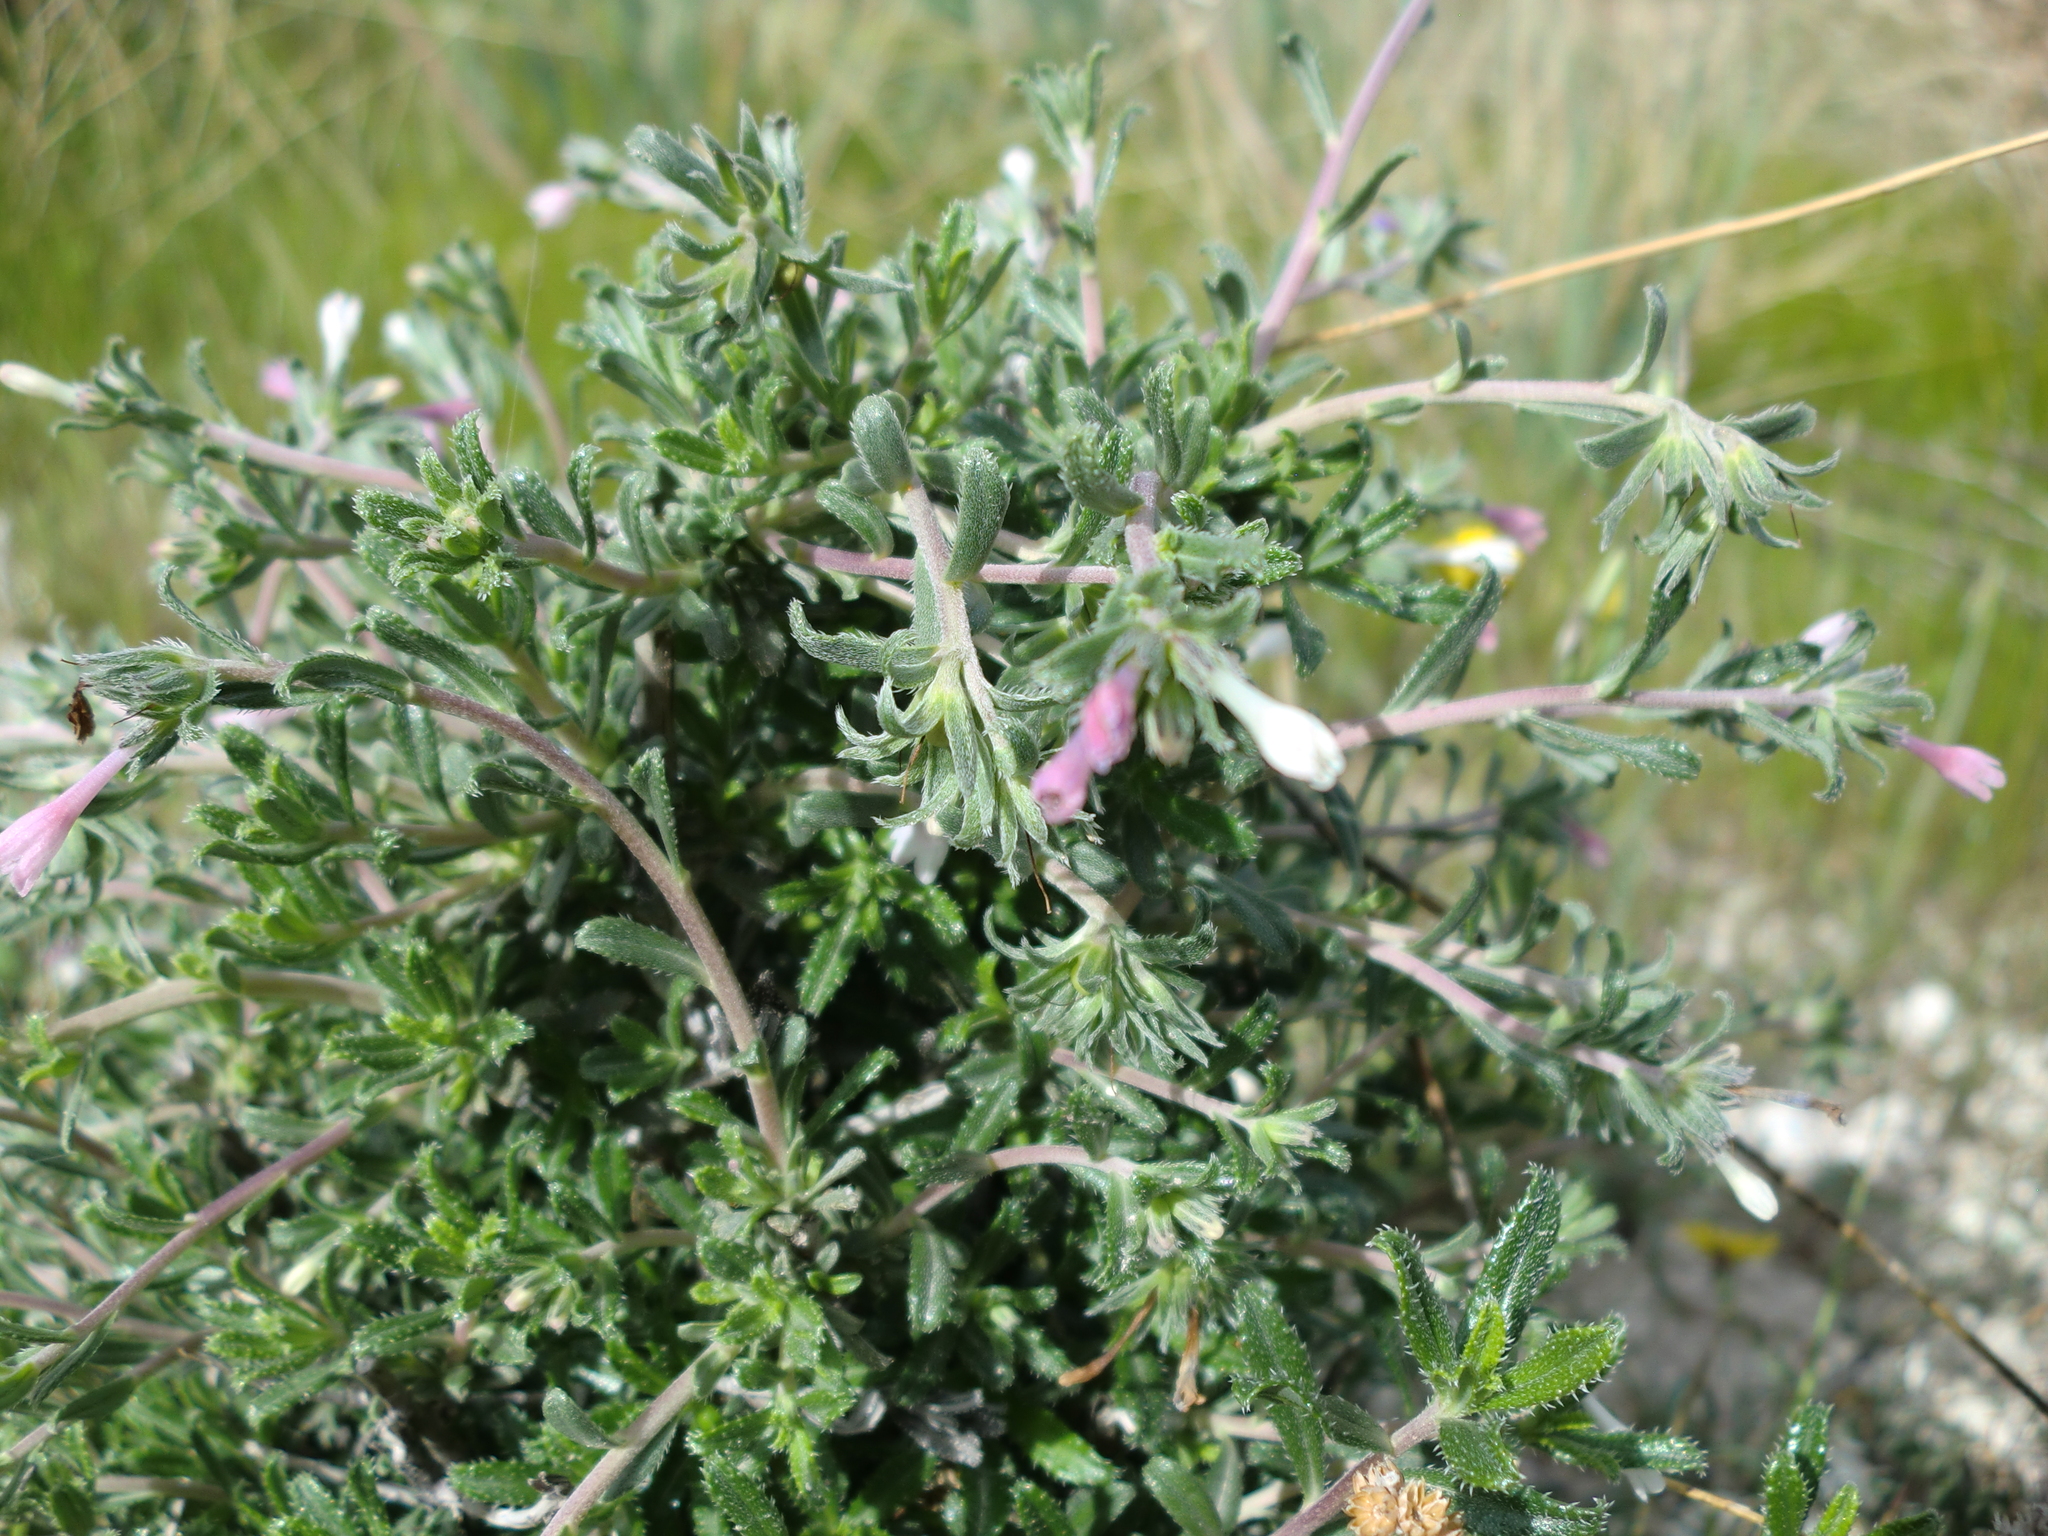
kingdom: Plantae
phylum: Tracheophyta
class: Magnoliopsida
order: Boraginales
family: Boraginaceae
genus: Lithodora
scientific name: Lithodora hispidula
